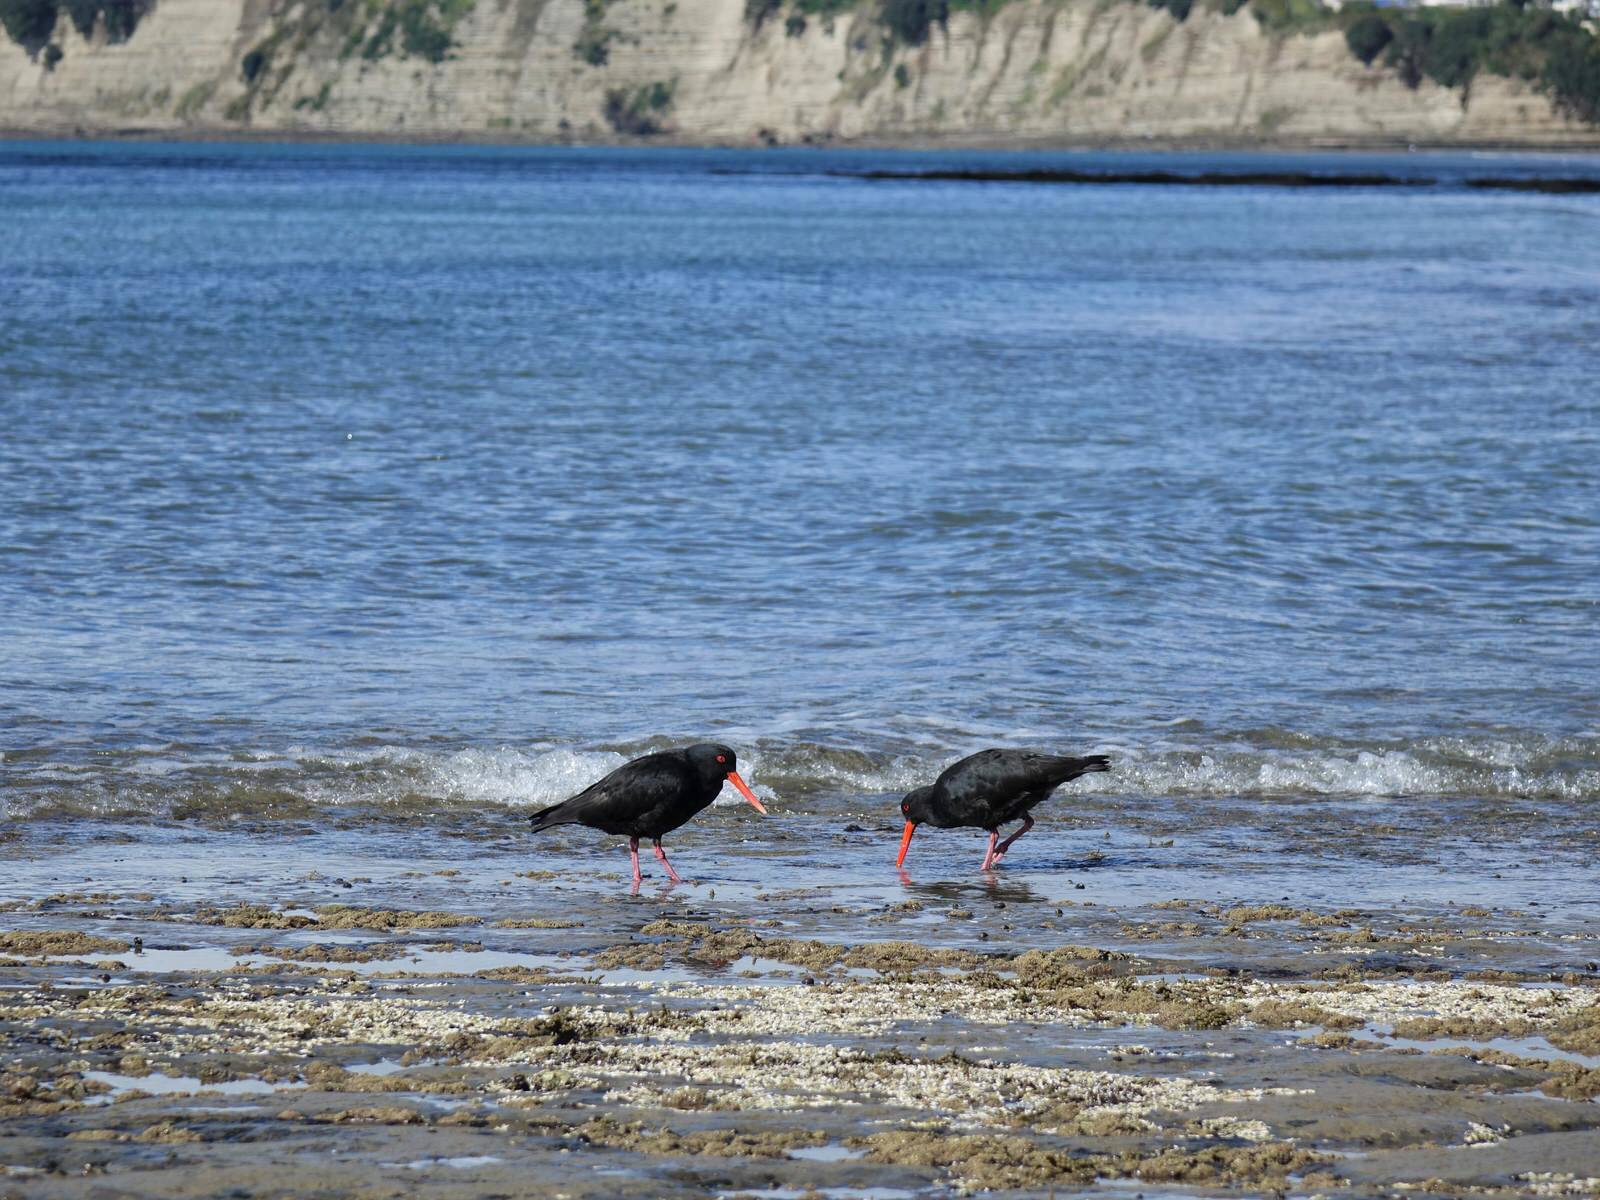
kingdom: Animalia
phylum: Chordata
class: Aves
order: Charadriiformes
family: Haematopodidae
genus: Haematopus
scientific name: Haematopus unicolor
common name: Variable oystercatcher
